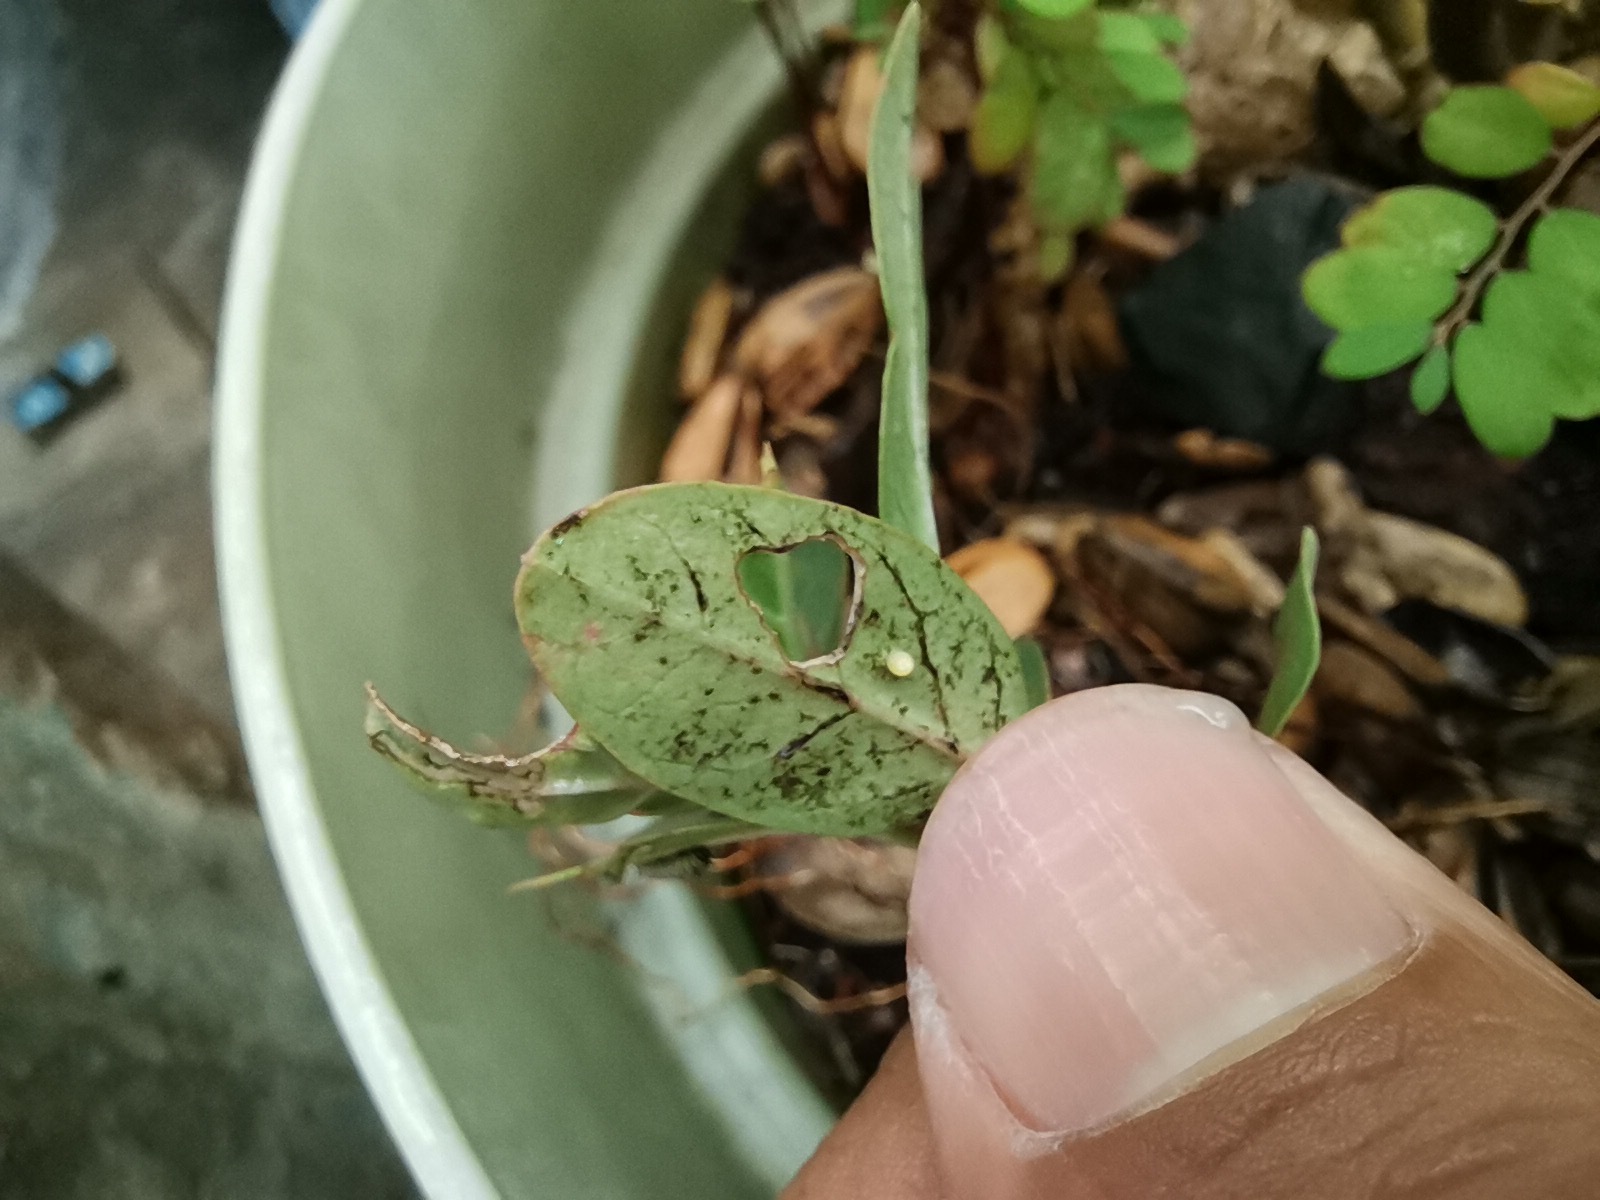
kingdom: Animalia
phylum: Arthropoda
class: Insecta
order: Lepidoptera
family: Nymphalidae
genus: Danaus
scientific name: Danaus plexippus
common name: Monarch
